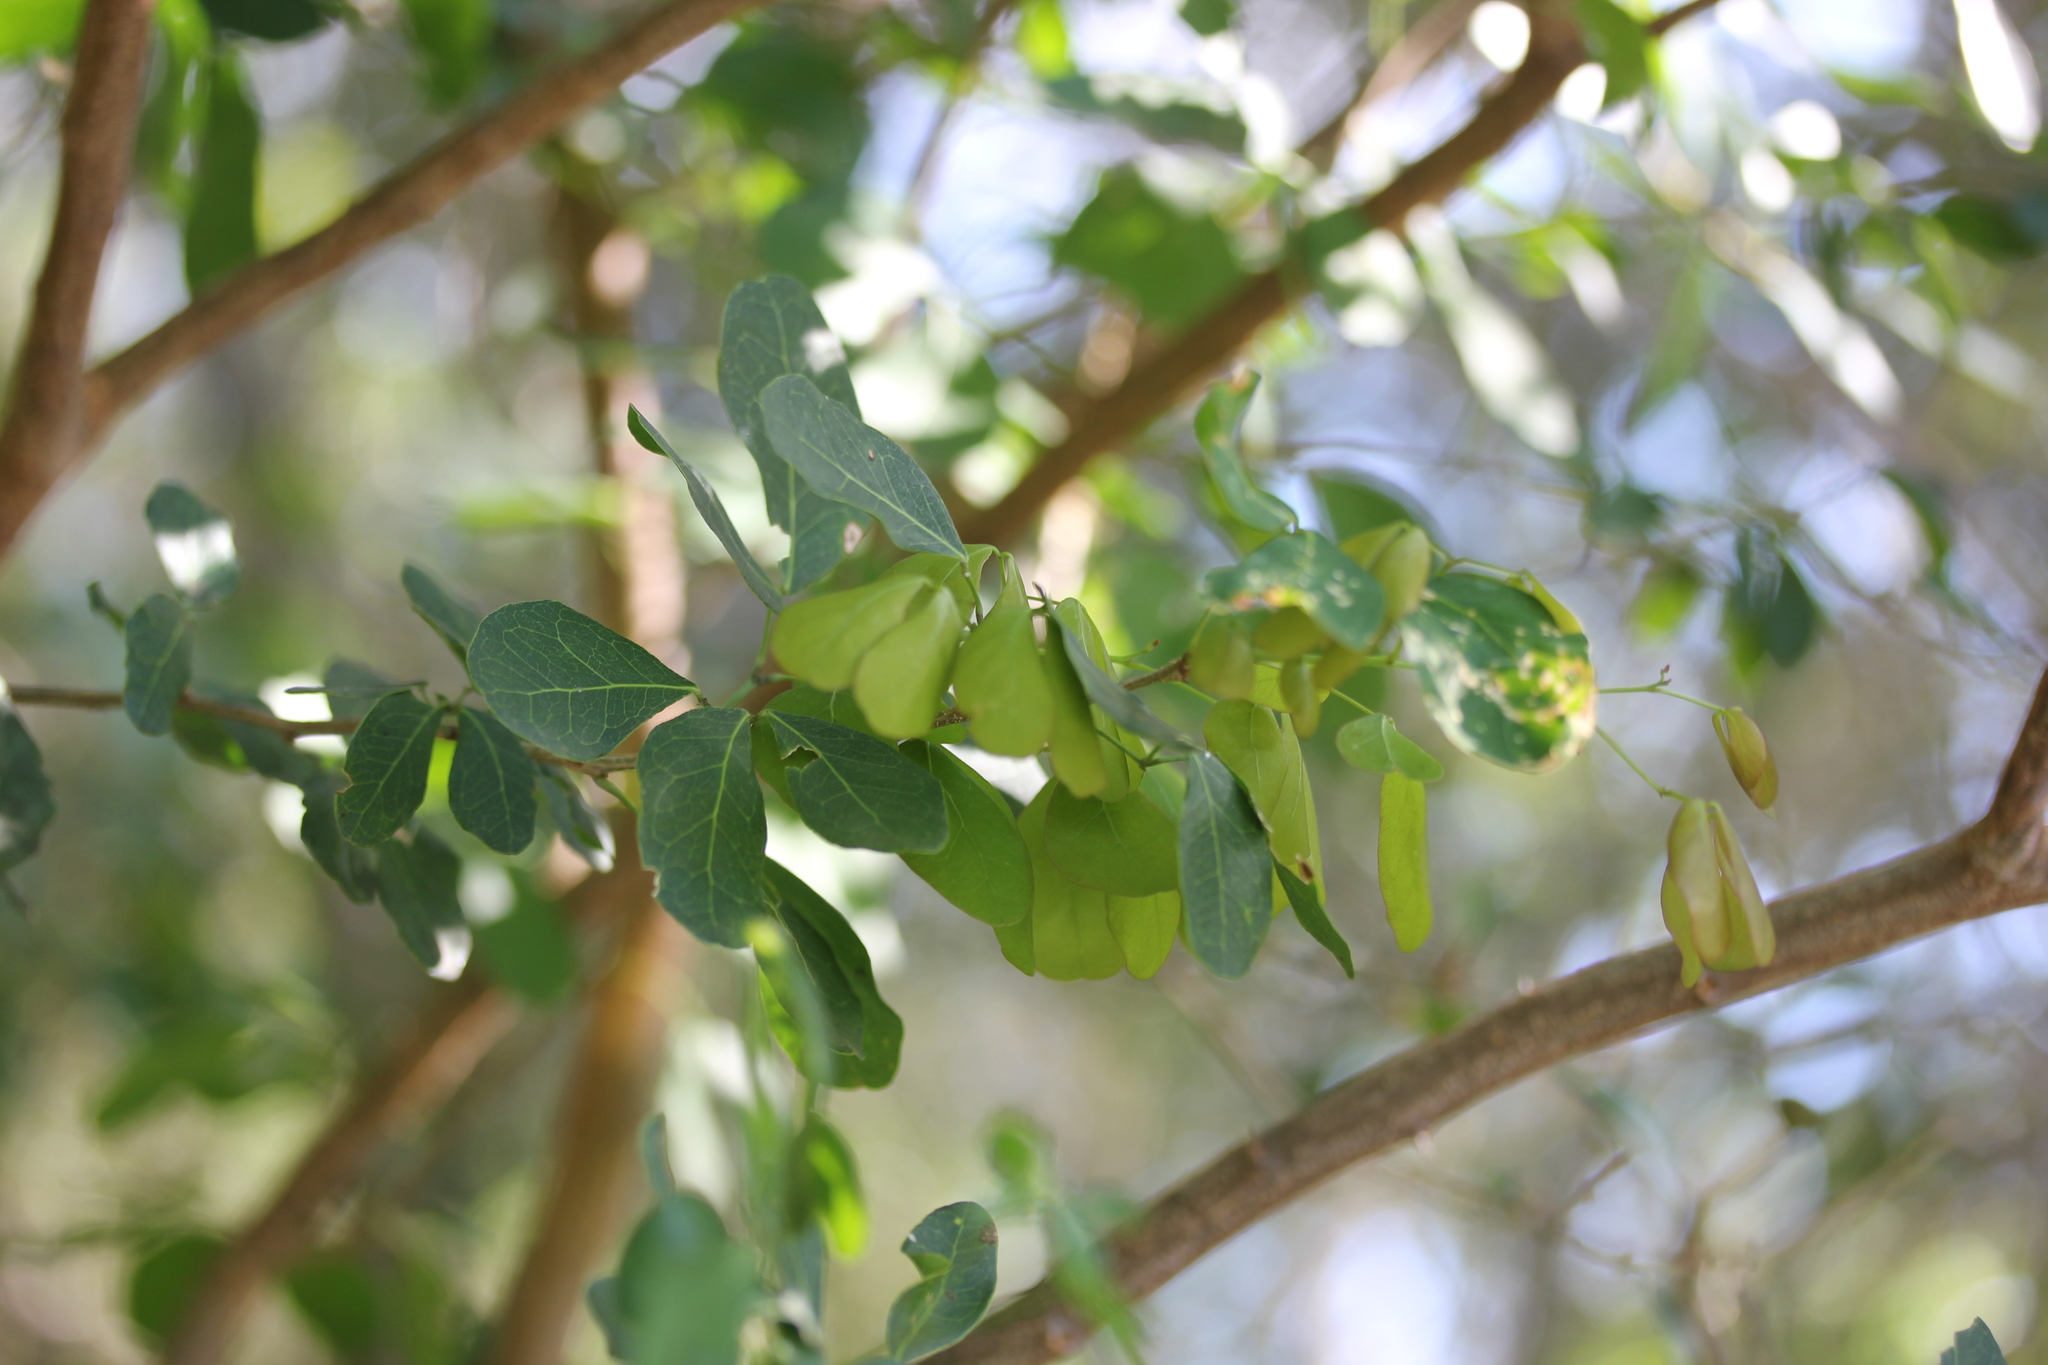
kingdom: Plantae
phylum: Tracheophyta
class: Magnoliopsida
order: Fabales
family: Fabaceae
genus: Pithecellobium
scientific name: Pithecellobium unguis-cati
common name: Cat's-claw
